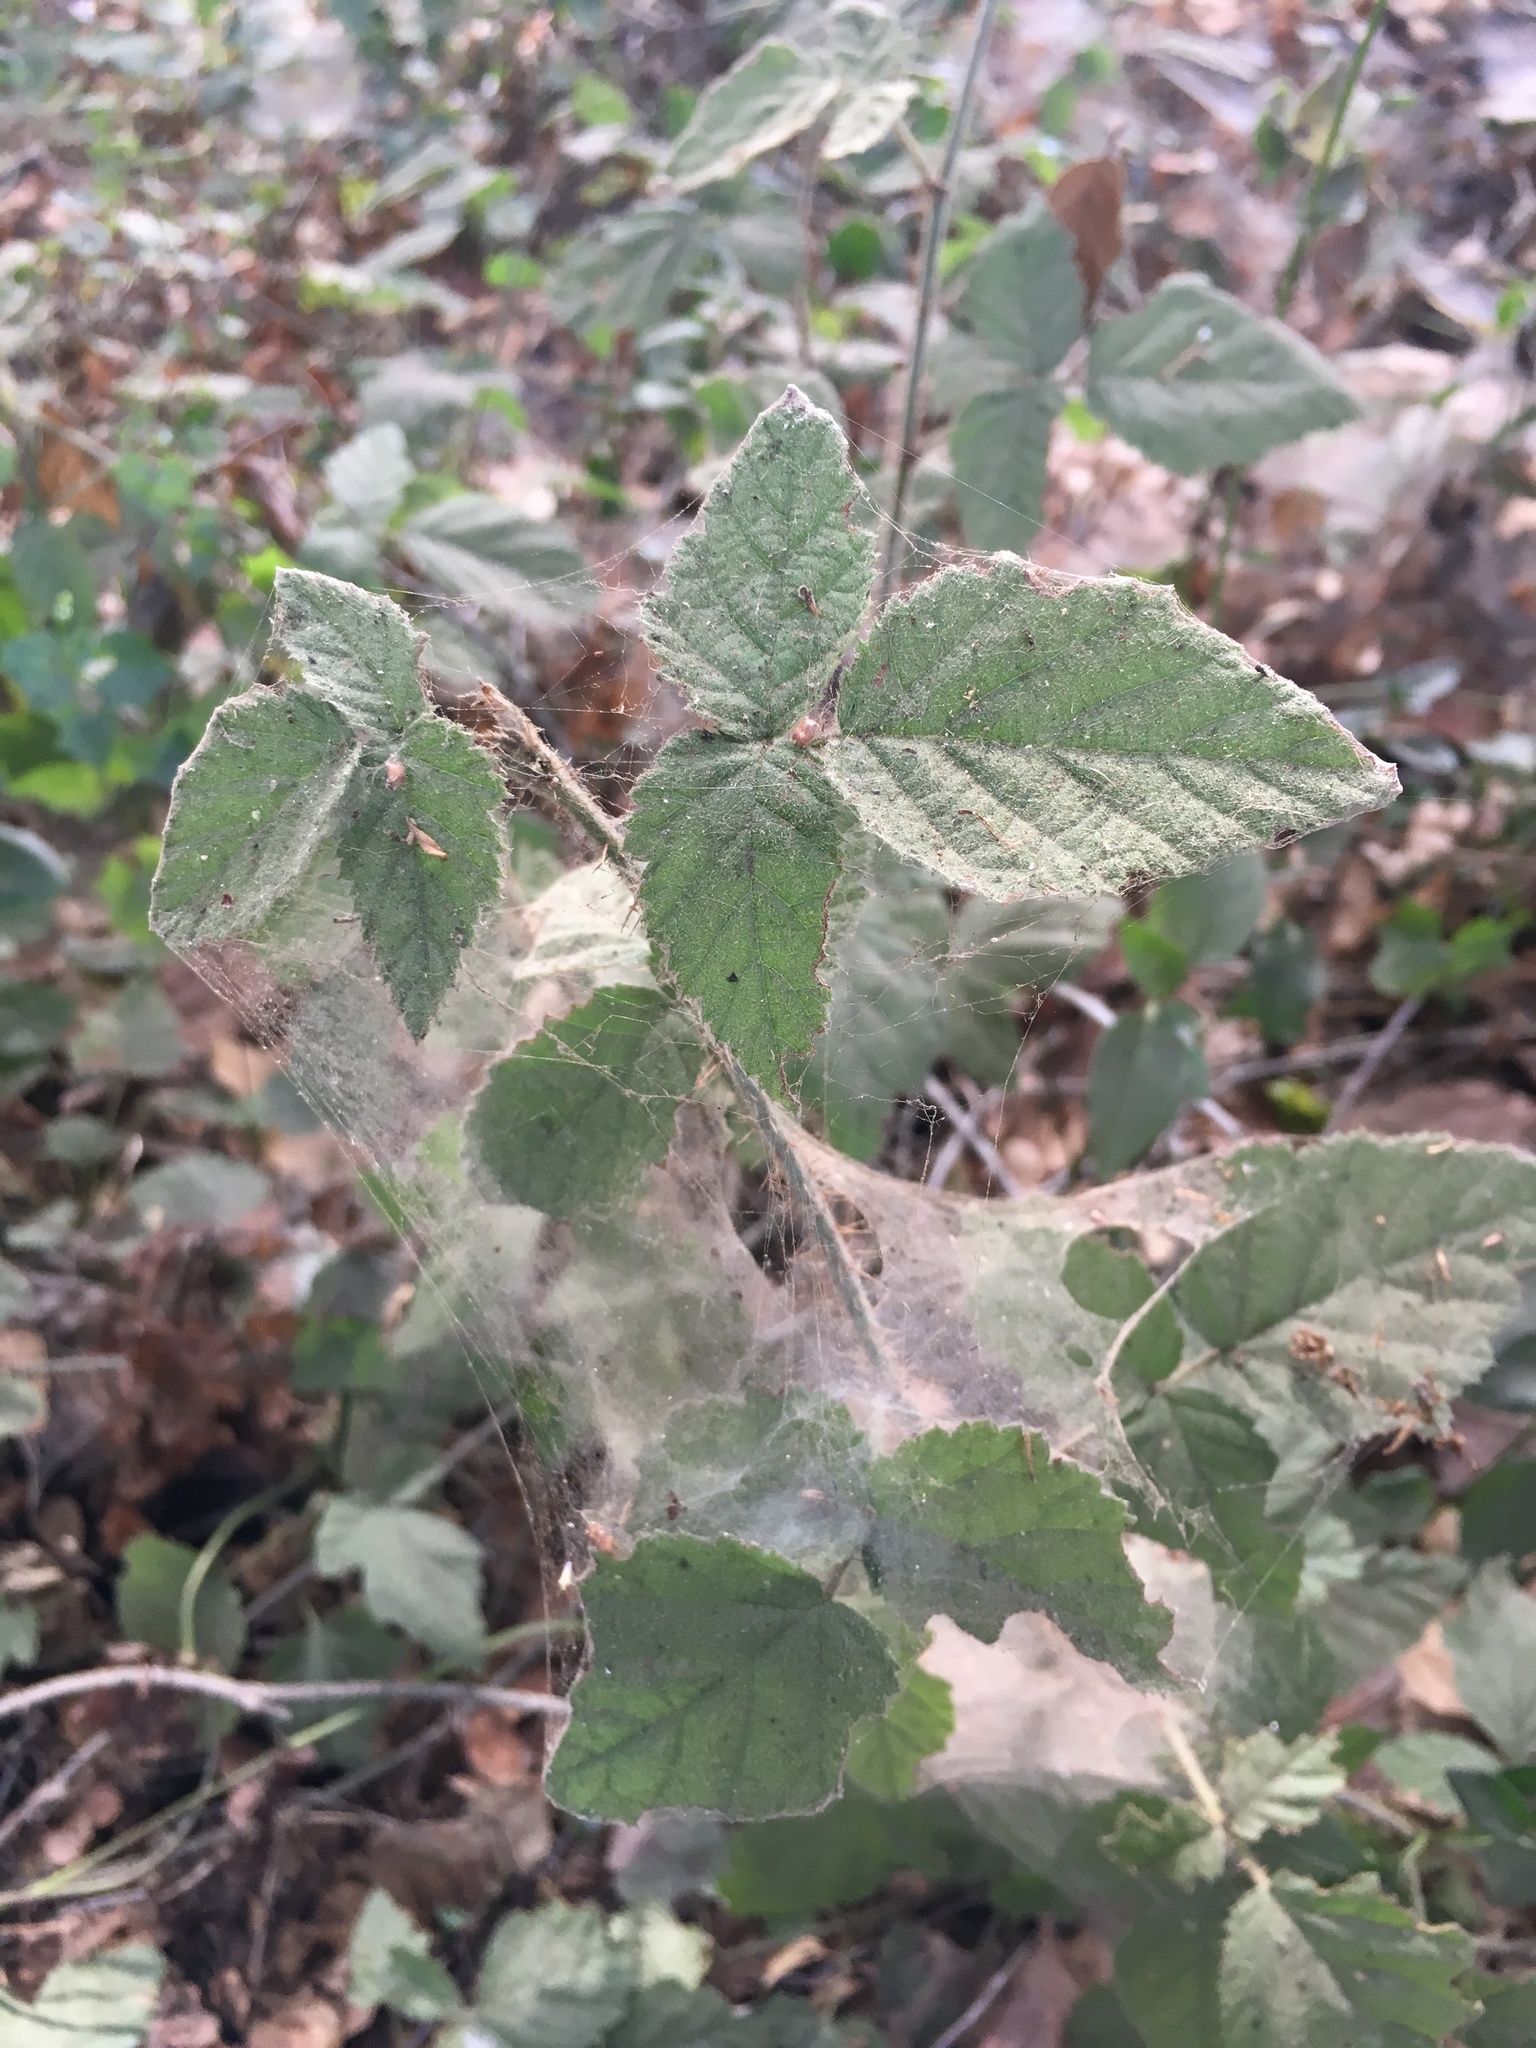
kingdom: Plantae
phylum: Tracheophyta
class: Magnoliopsida
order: Rosales
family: Rosaceae
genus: Rubus
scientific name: Rubus ursinus
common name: Pacific blackberry
